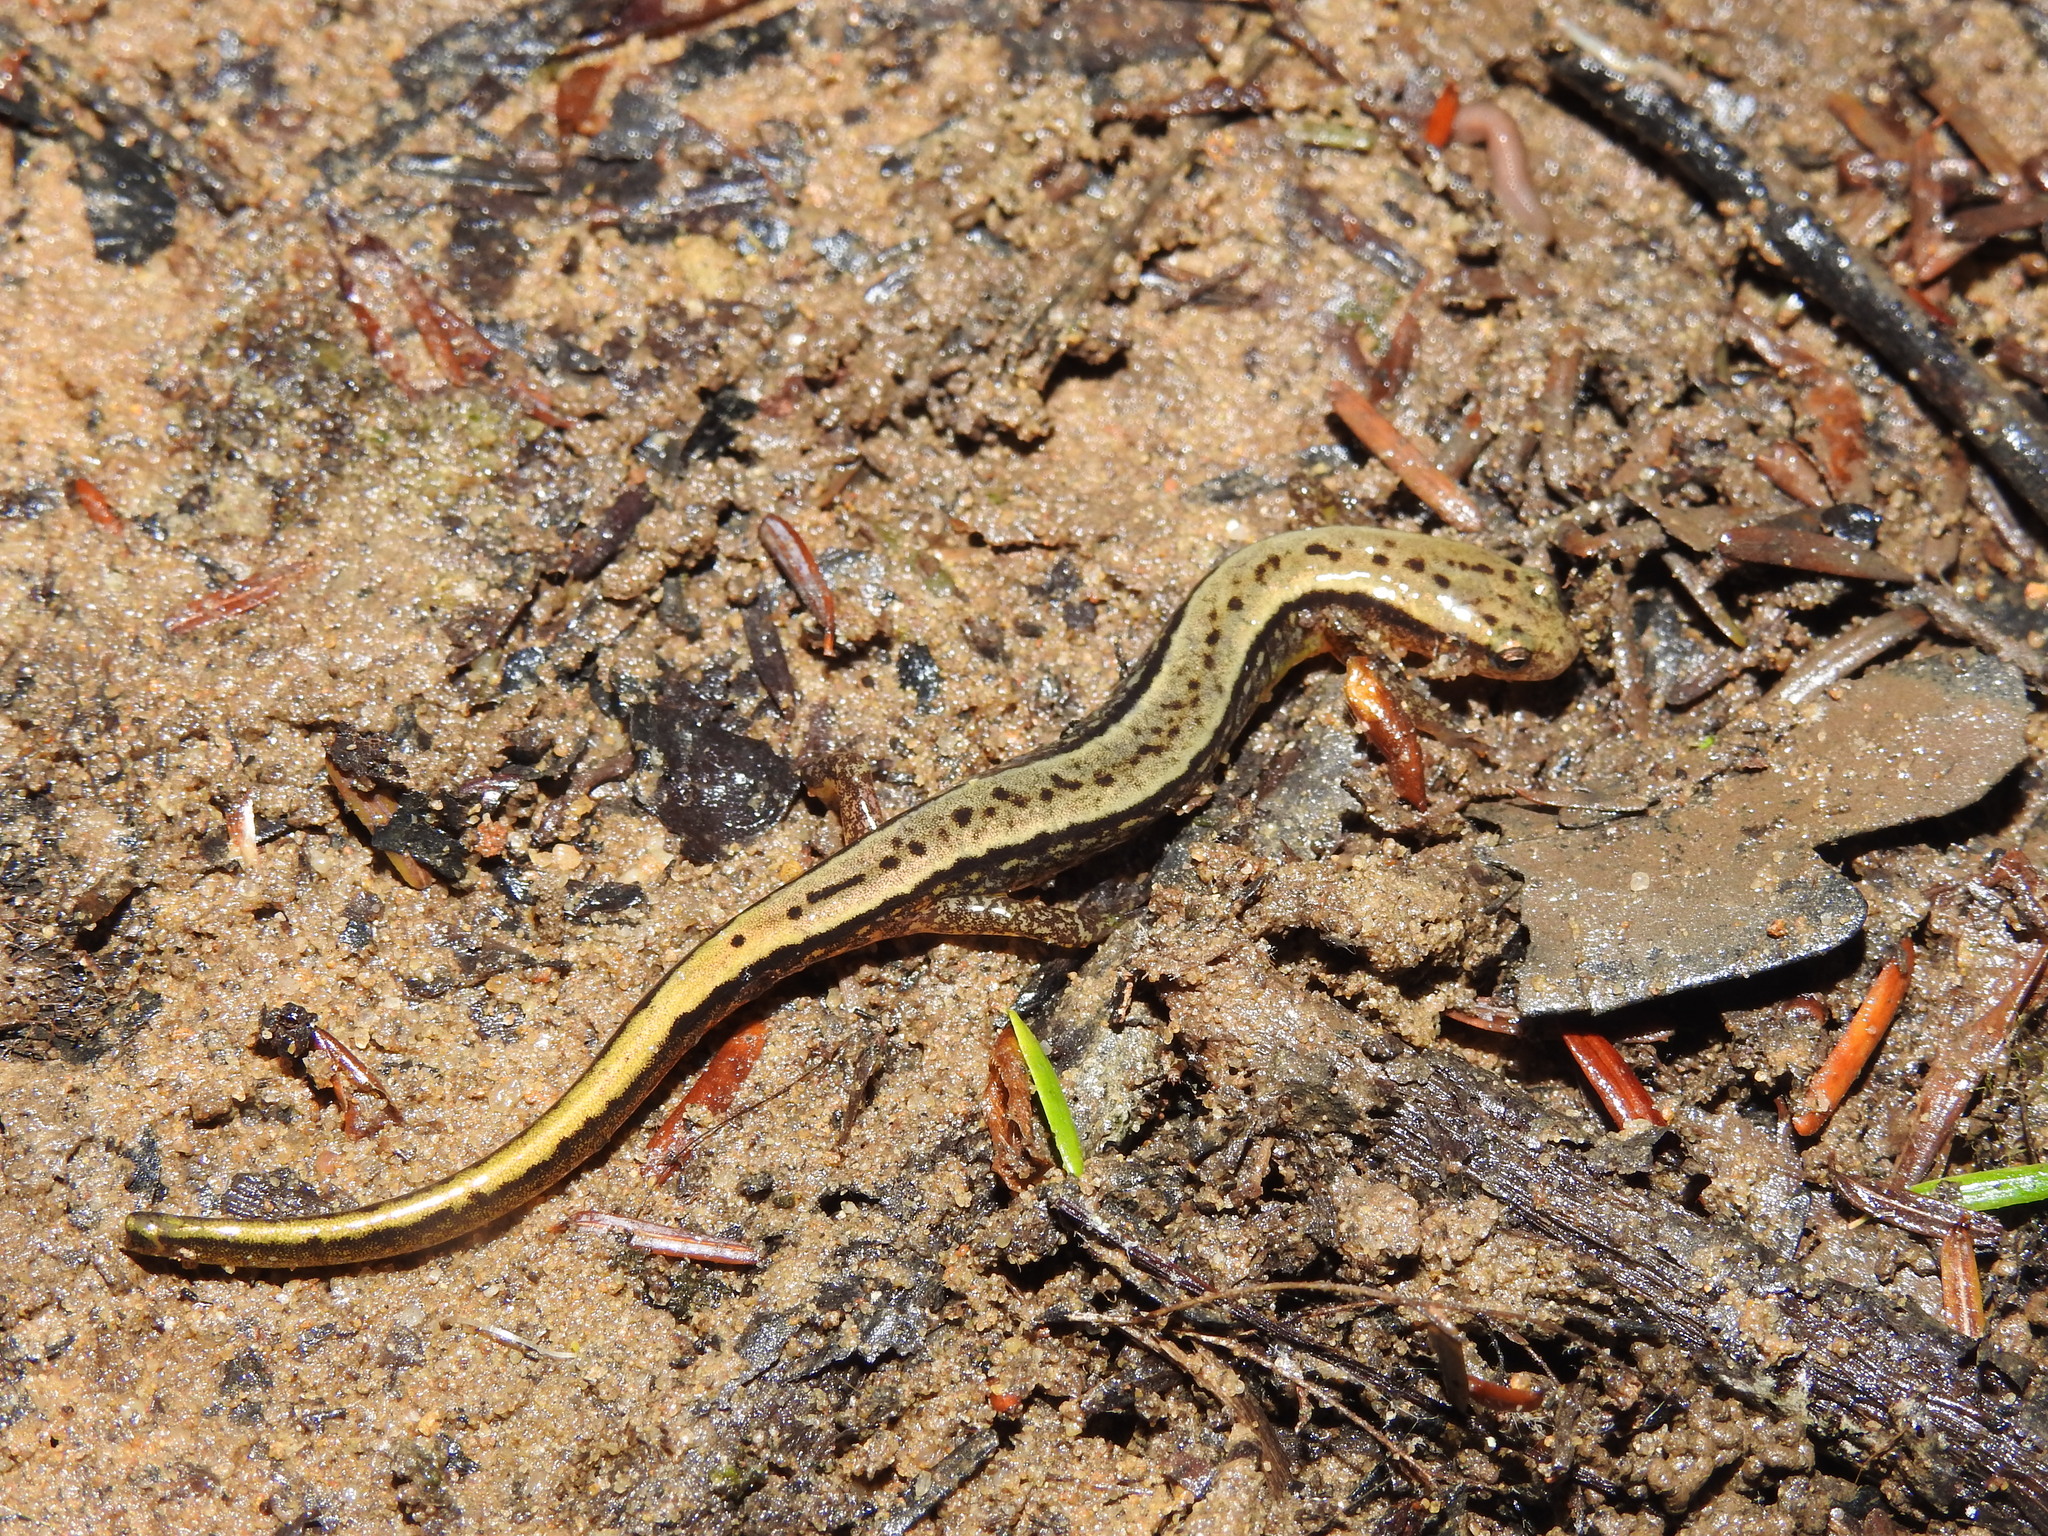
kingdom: Animalia
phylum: Chordata
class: Amphibia
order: Caudata
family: Plethodontidae
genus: Eurycea
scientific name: Eurycea cirrigera
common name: Southern two-lined salamander
